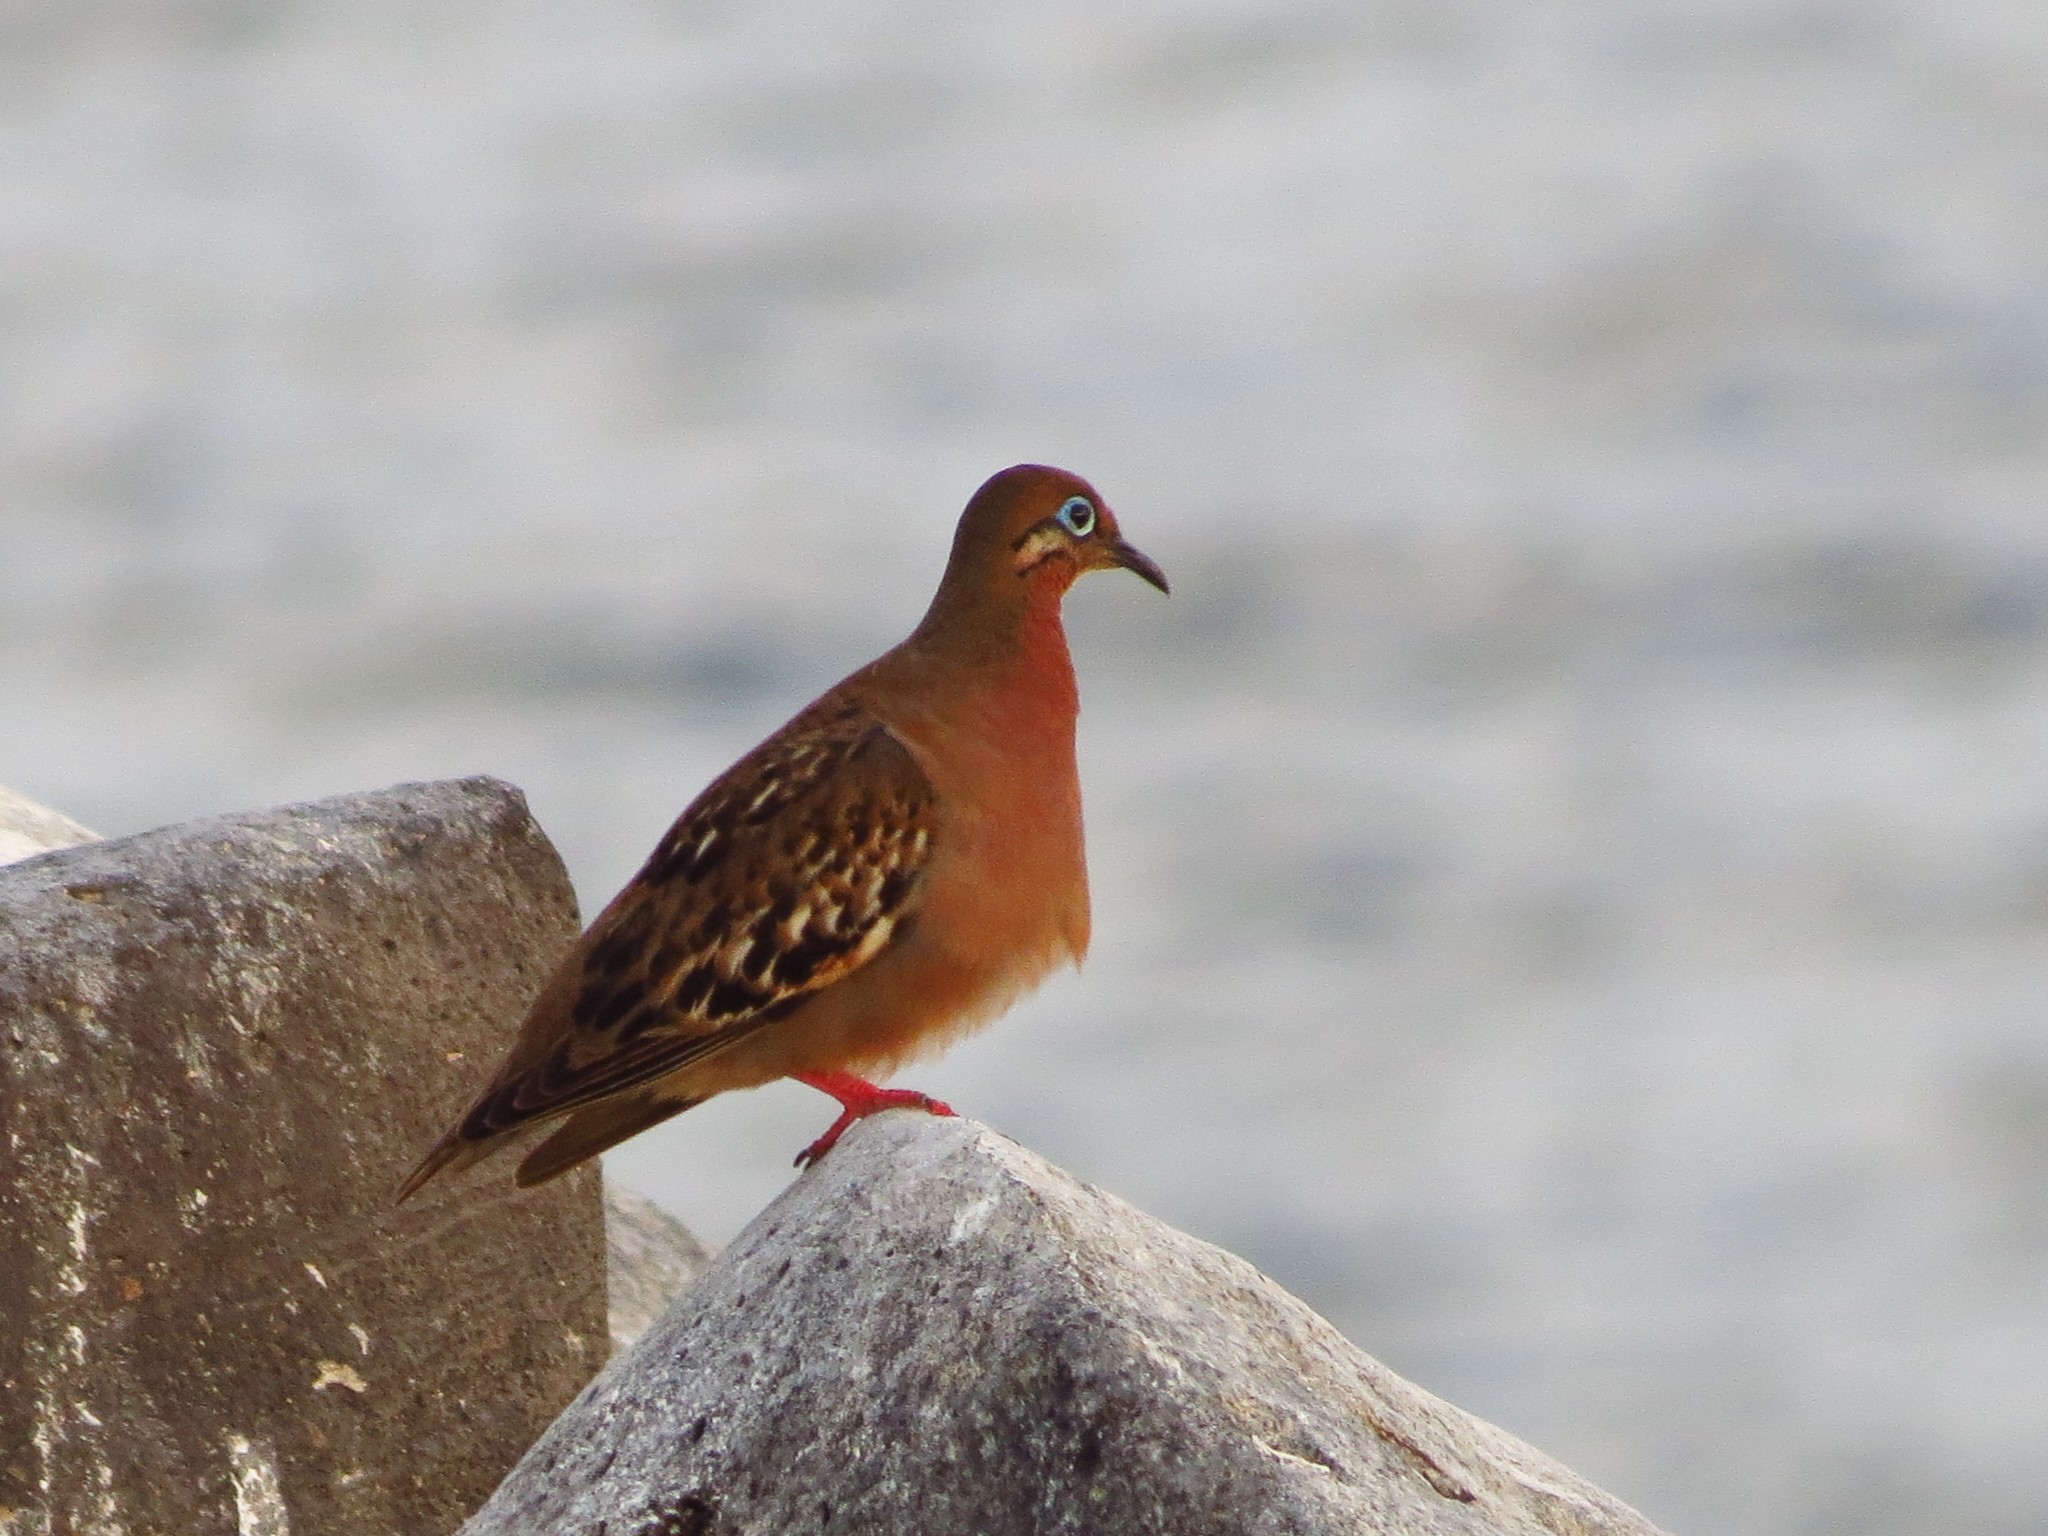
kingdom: Animalia
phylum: Chordata
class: Aves
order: Columbiformes
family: Columbidae
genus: Zenaida
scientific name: Zenaida galapagoensis
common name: Galapagos dove
